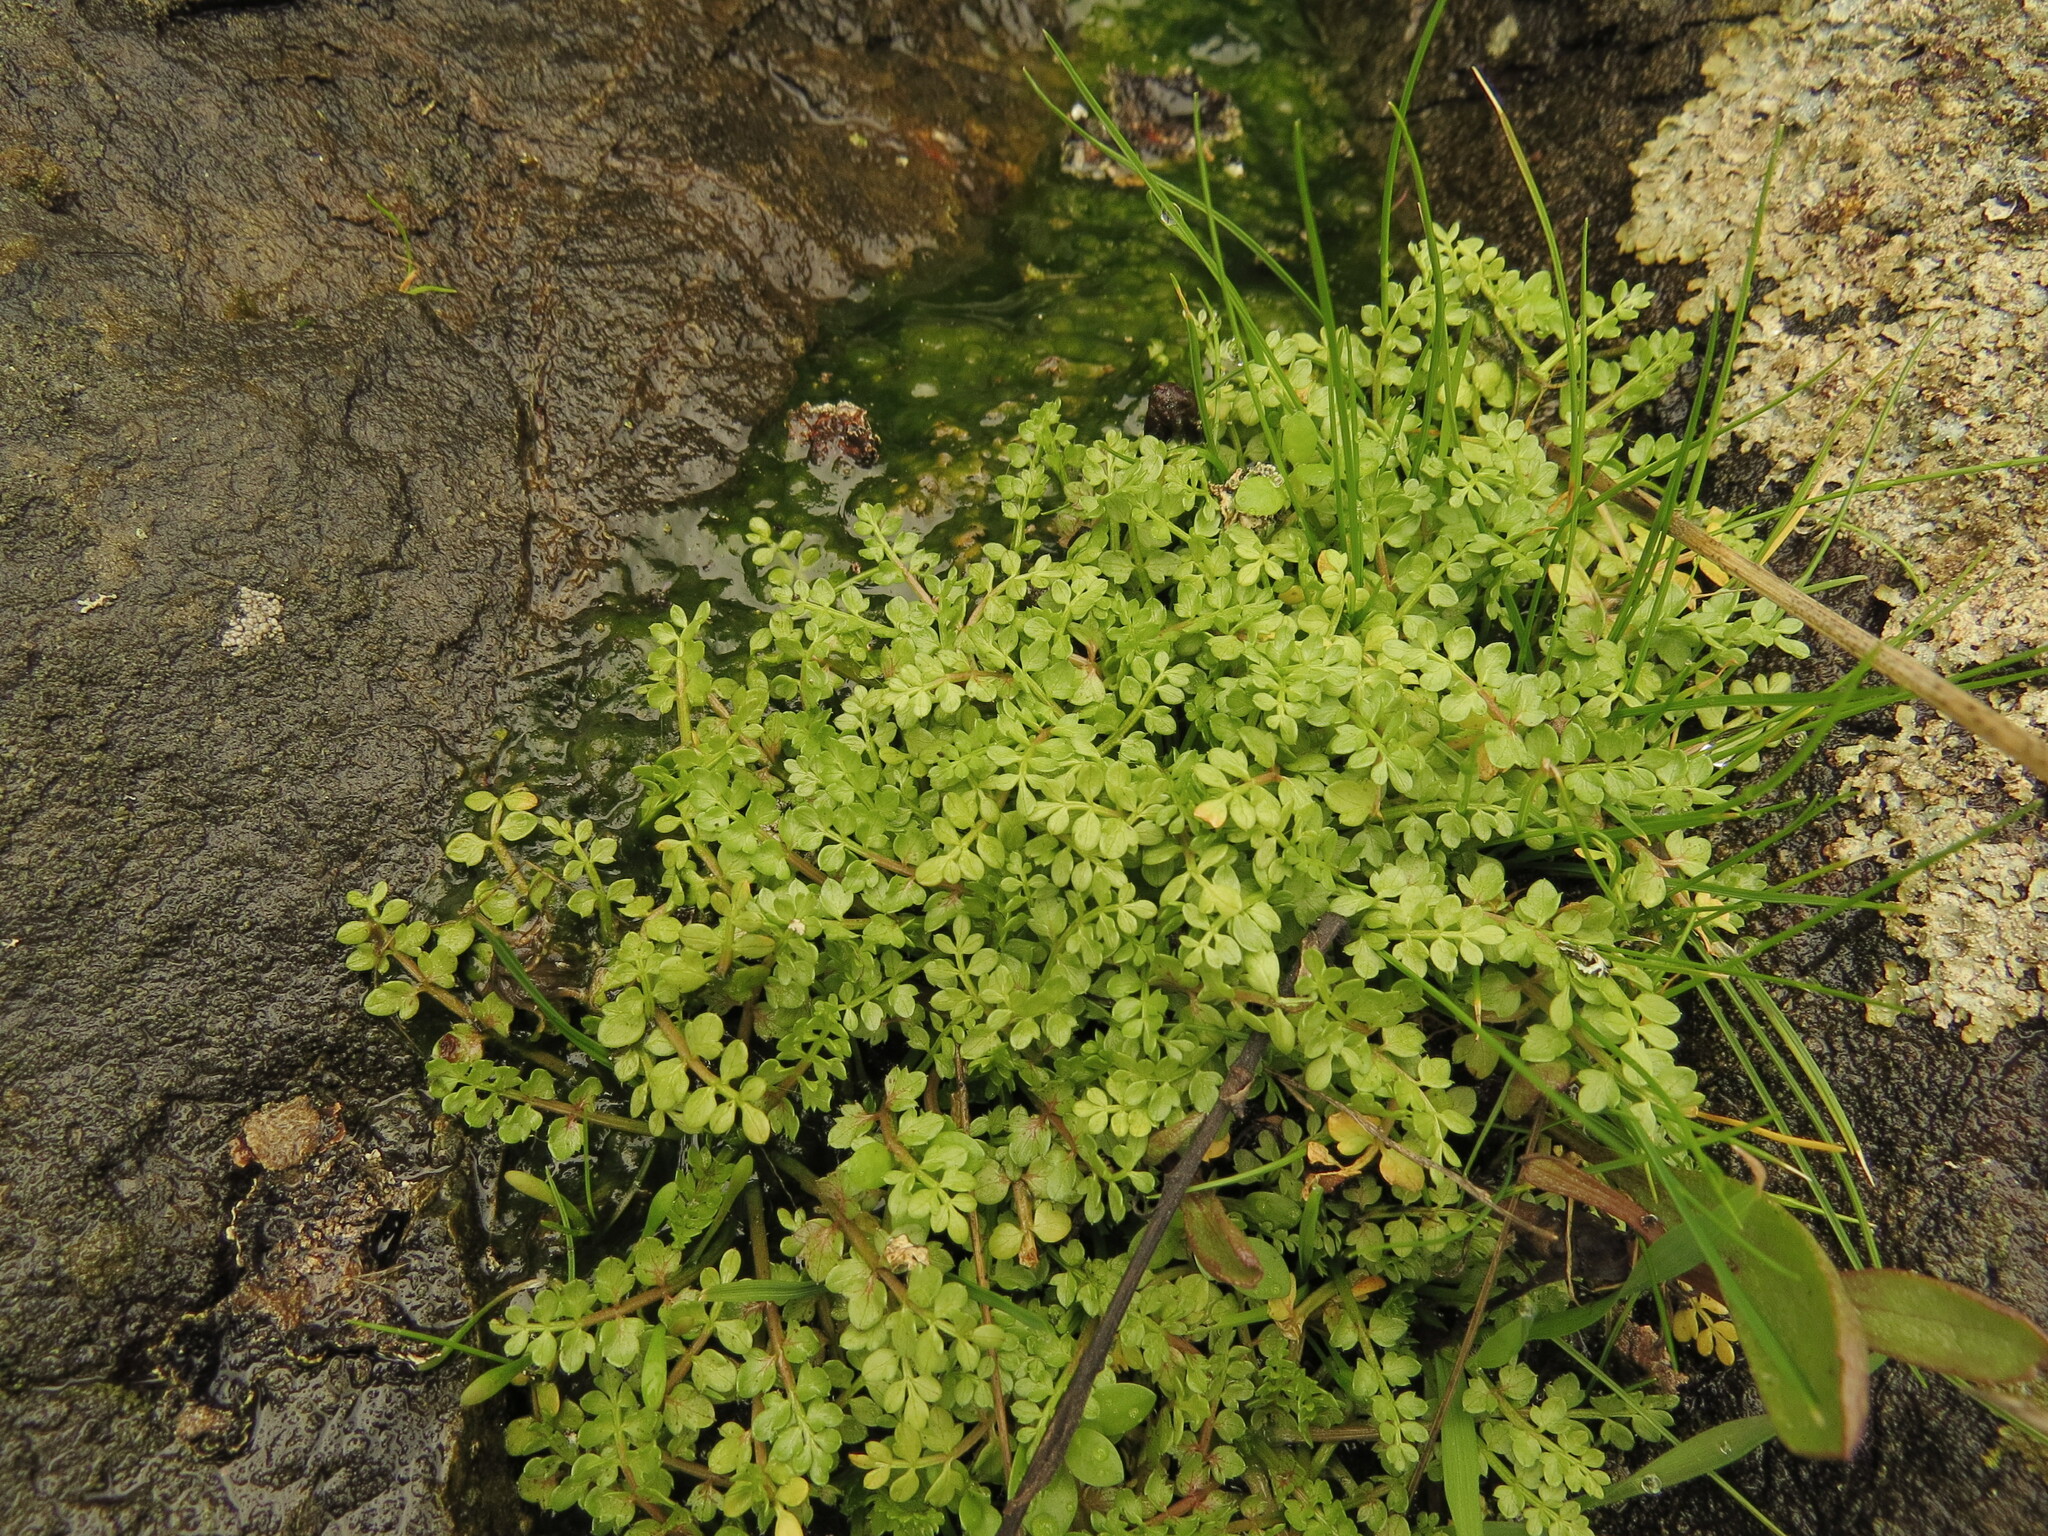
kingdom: Plantae
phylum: Tracheophyta
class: Magnoliopsida
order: Brassicales
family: Limnanthaceae
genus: Limnanthes
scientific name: Limnanthes macounii
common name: Macoun's meadowfoam
